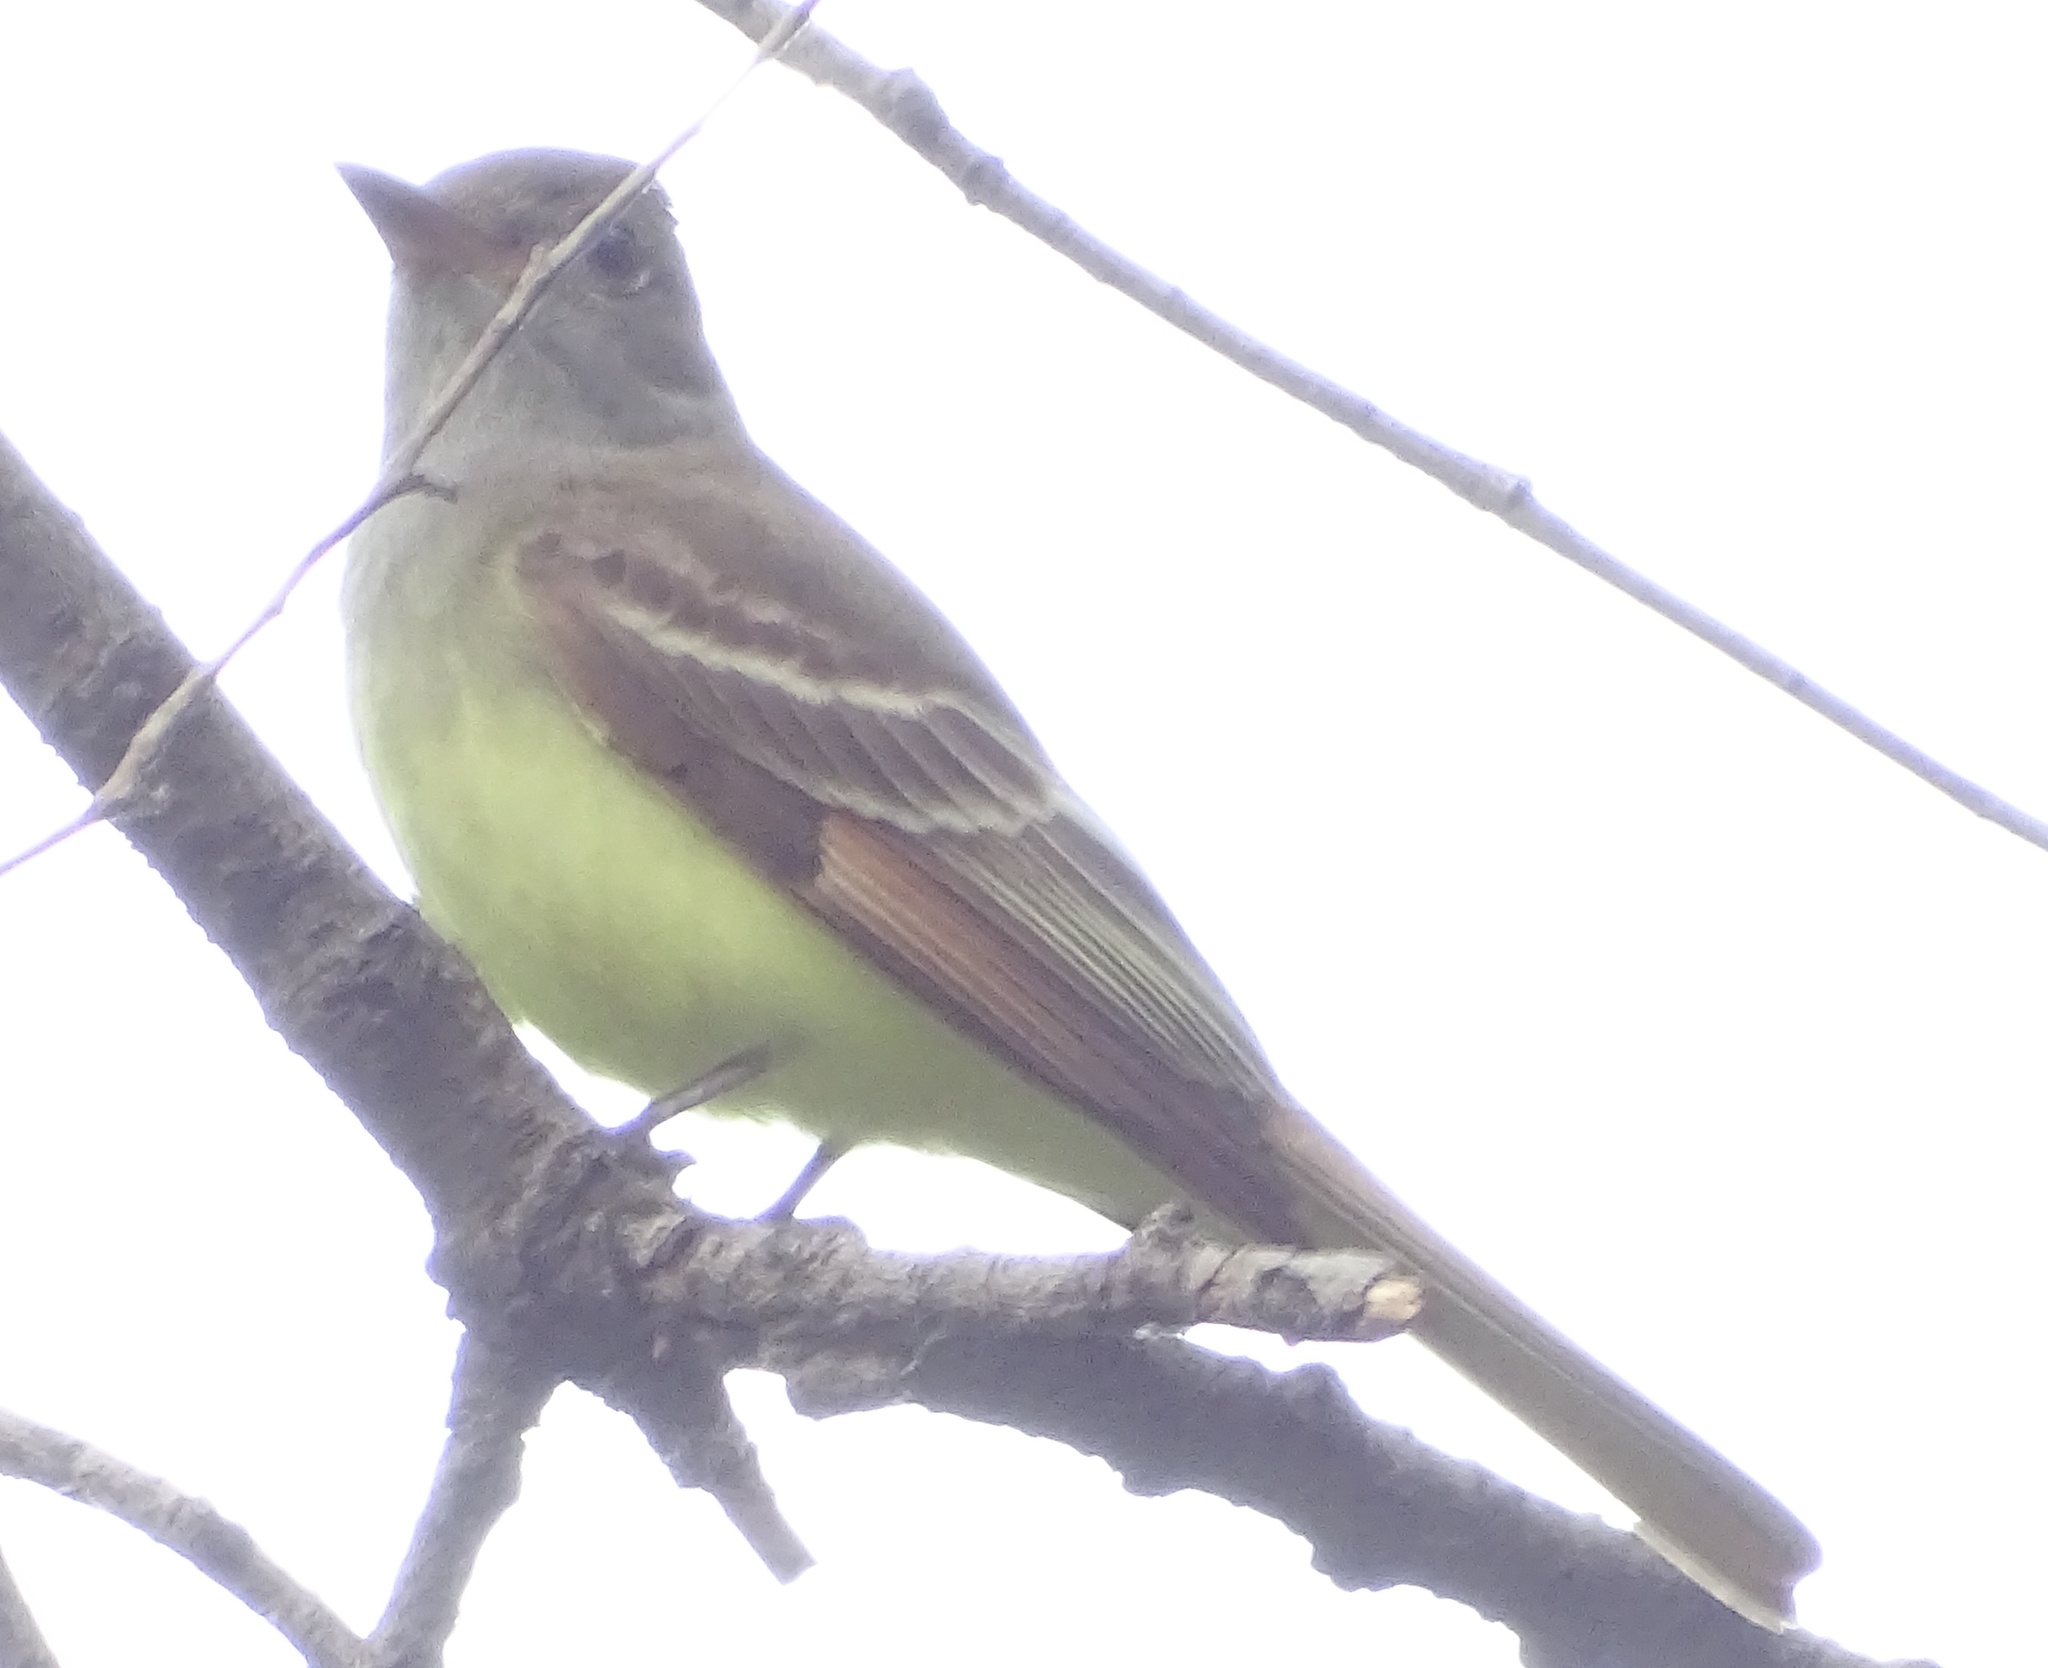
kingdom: Animalia
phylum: Chordata
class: Aves
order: Passeriformes
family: Tyrannidae
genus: Myiarchus
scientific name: Myiarchus crinitus
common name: Great crested flycatcher
